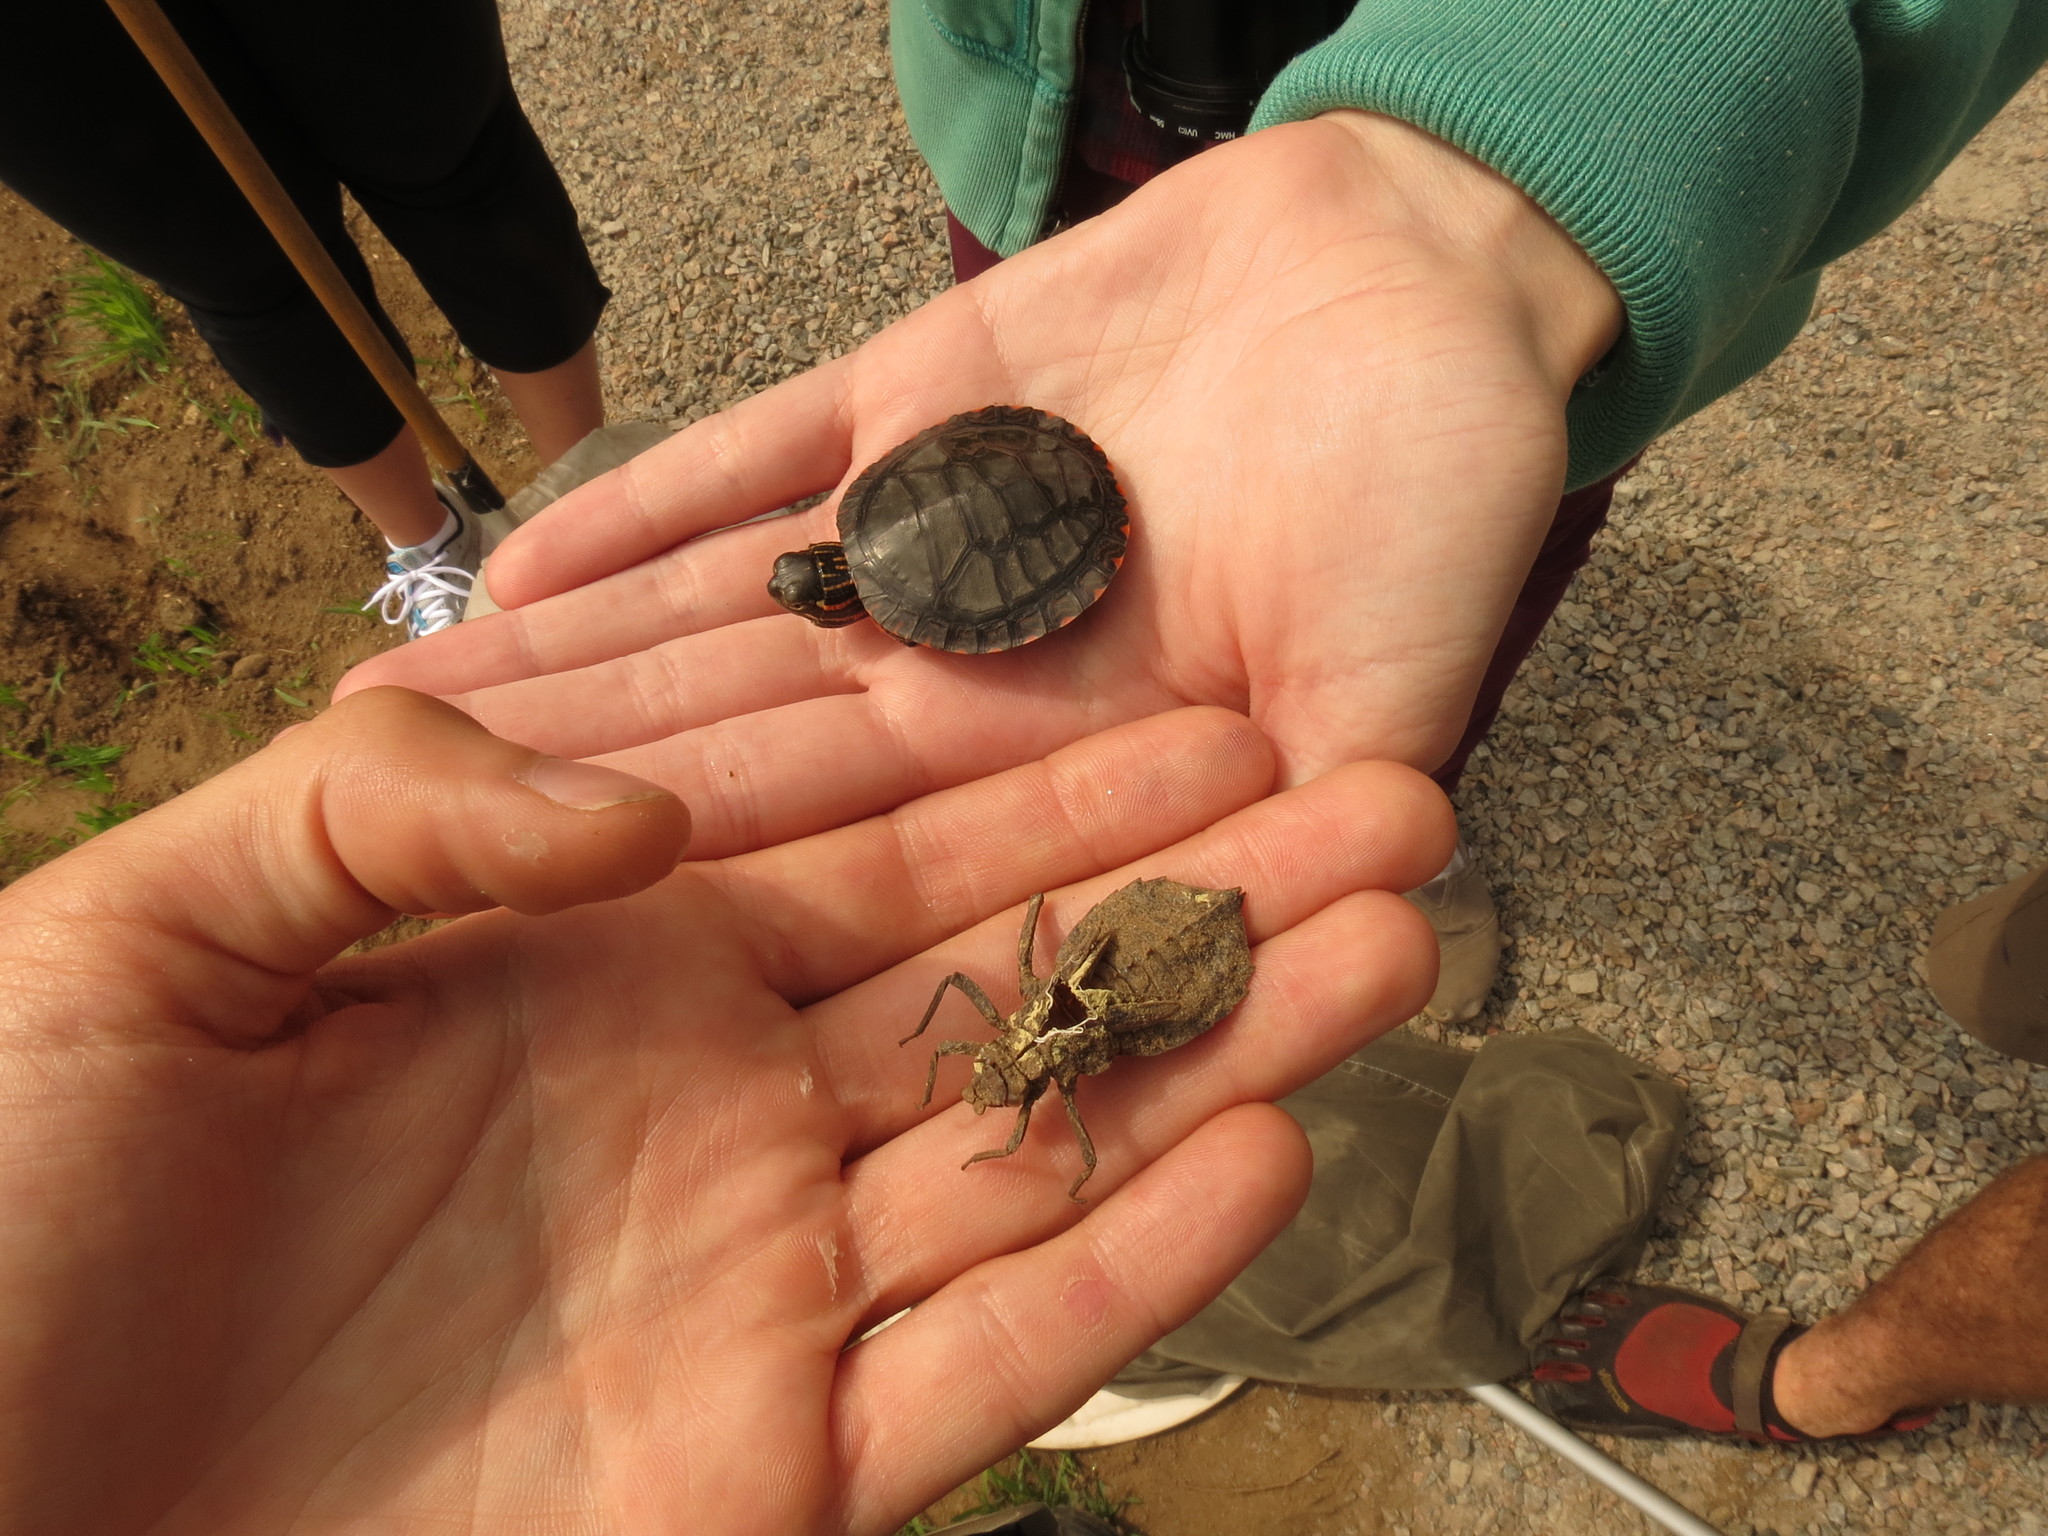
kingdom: Animalia
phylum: Arthropoda
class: Insecta
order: Odonata
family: Gomphidae
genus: Hagenius
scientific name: Hagenius brevistylus
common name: Dragonhunter
